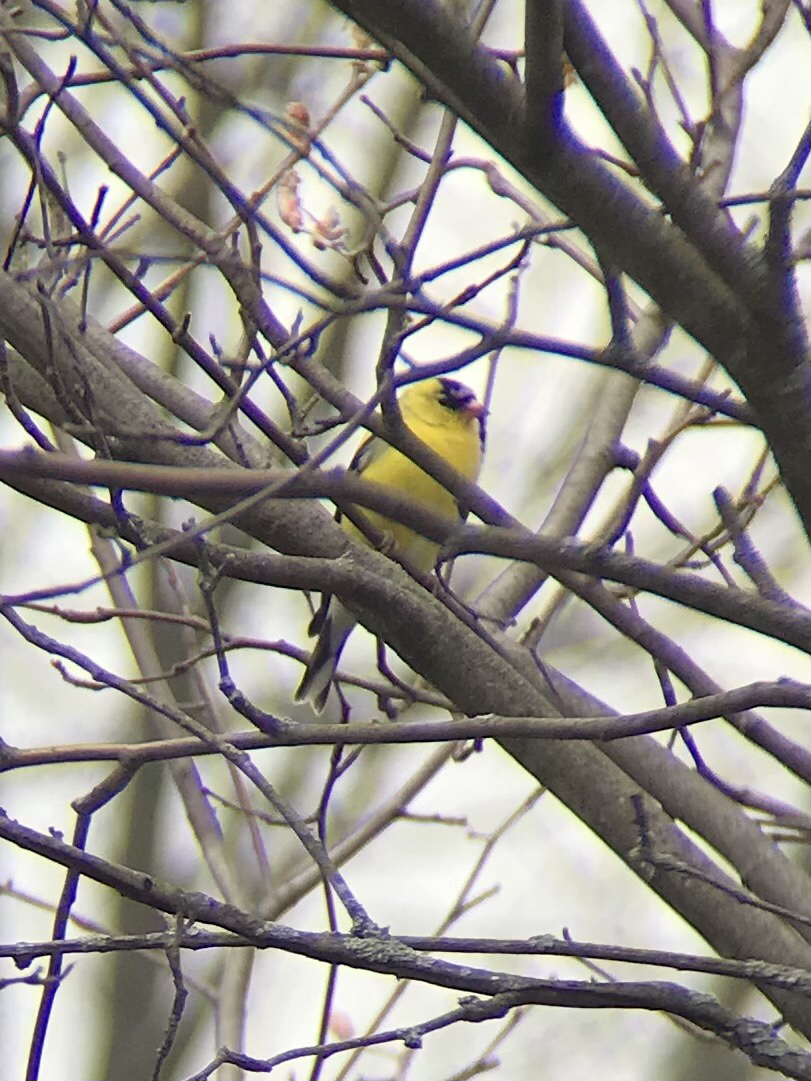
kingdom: Animalia
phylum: Chordata
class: Aves
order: Passeriformes
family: Fringillidae
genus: Spinus
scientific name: Spinus tristis
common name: American goldfinch
